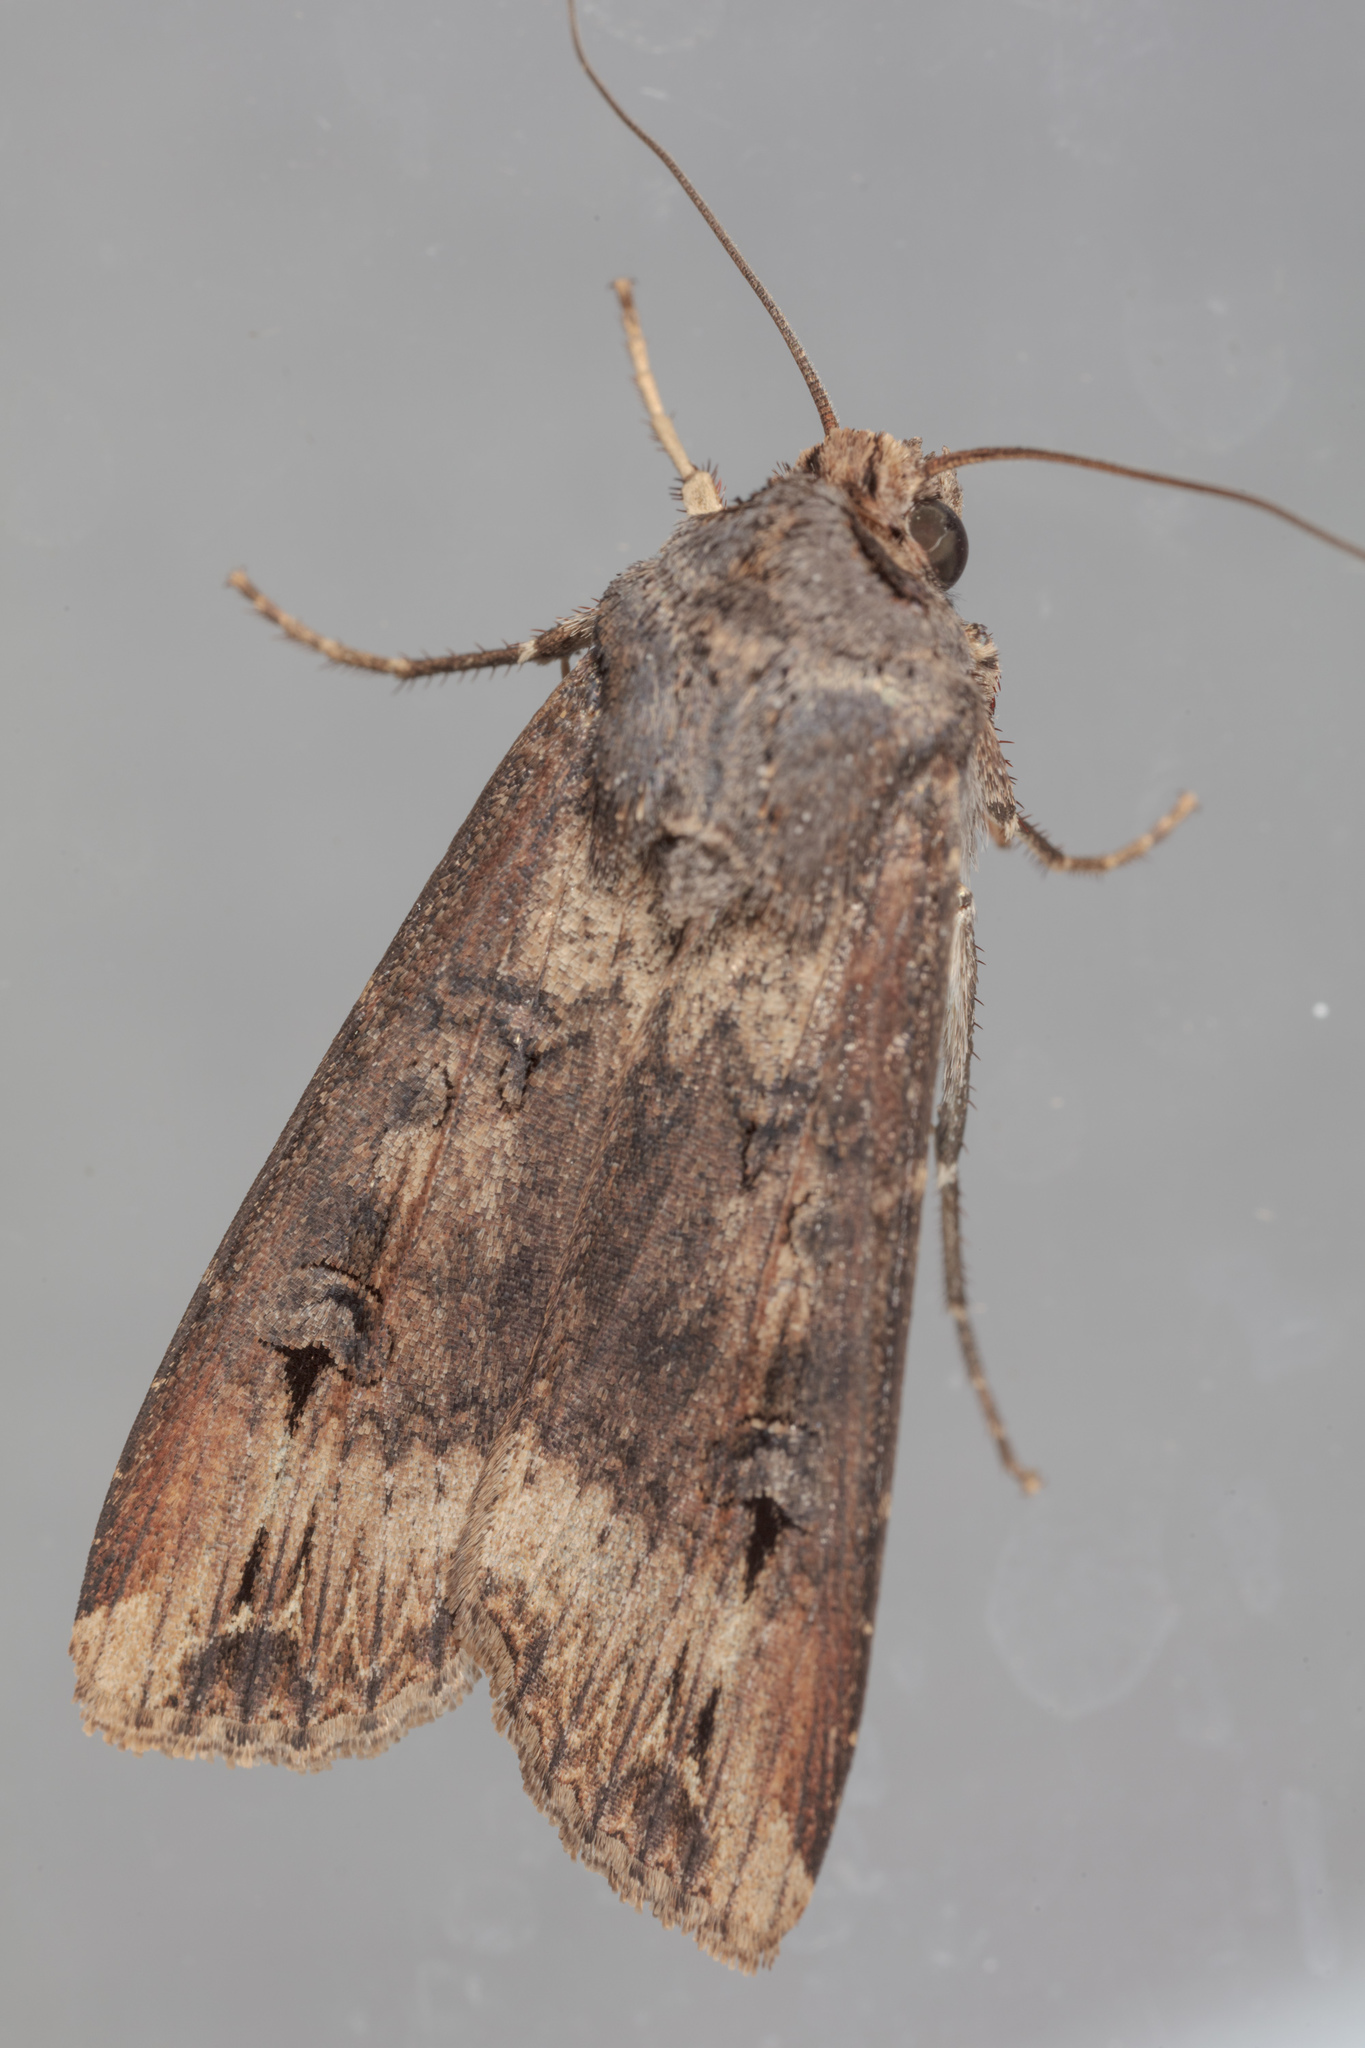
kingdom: Animalia
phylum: Arthropoda
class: Insecta
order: Lepidoptera
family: Noctuidae
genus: Agrotis
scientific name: Agrotis ipsilon
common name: Dark sword-grass
